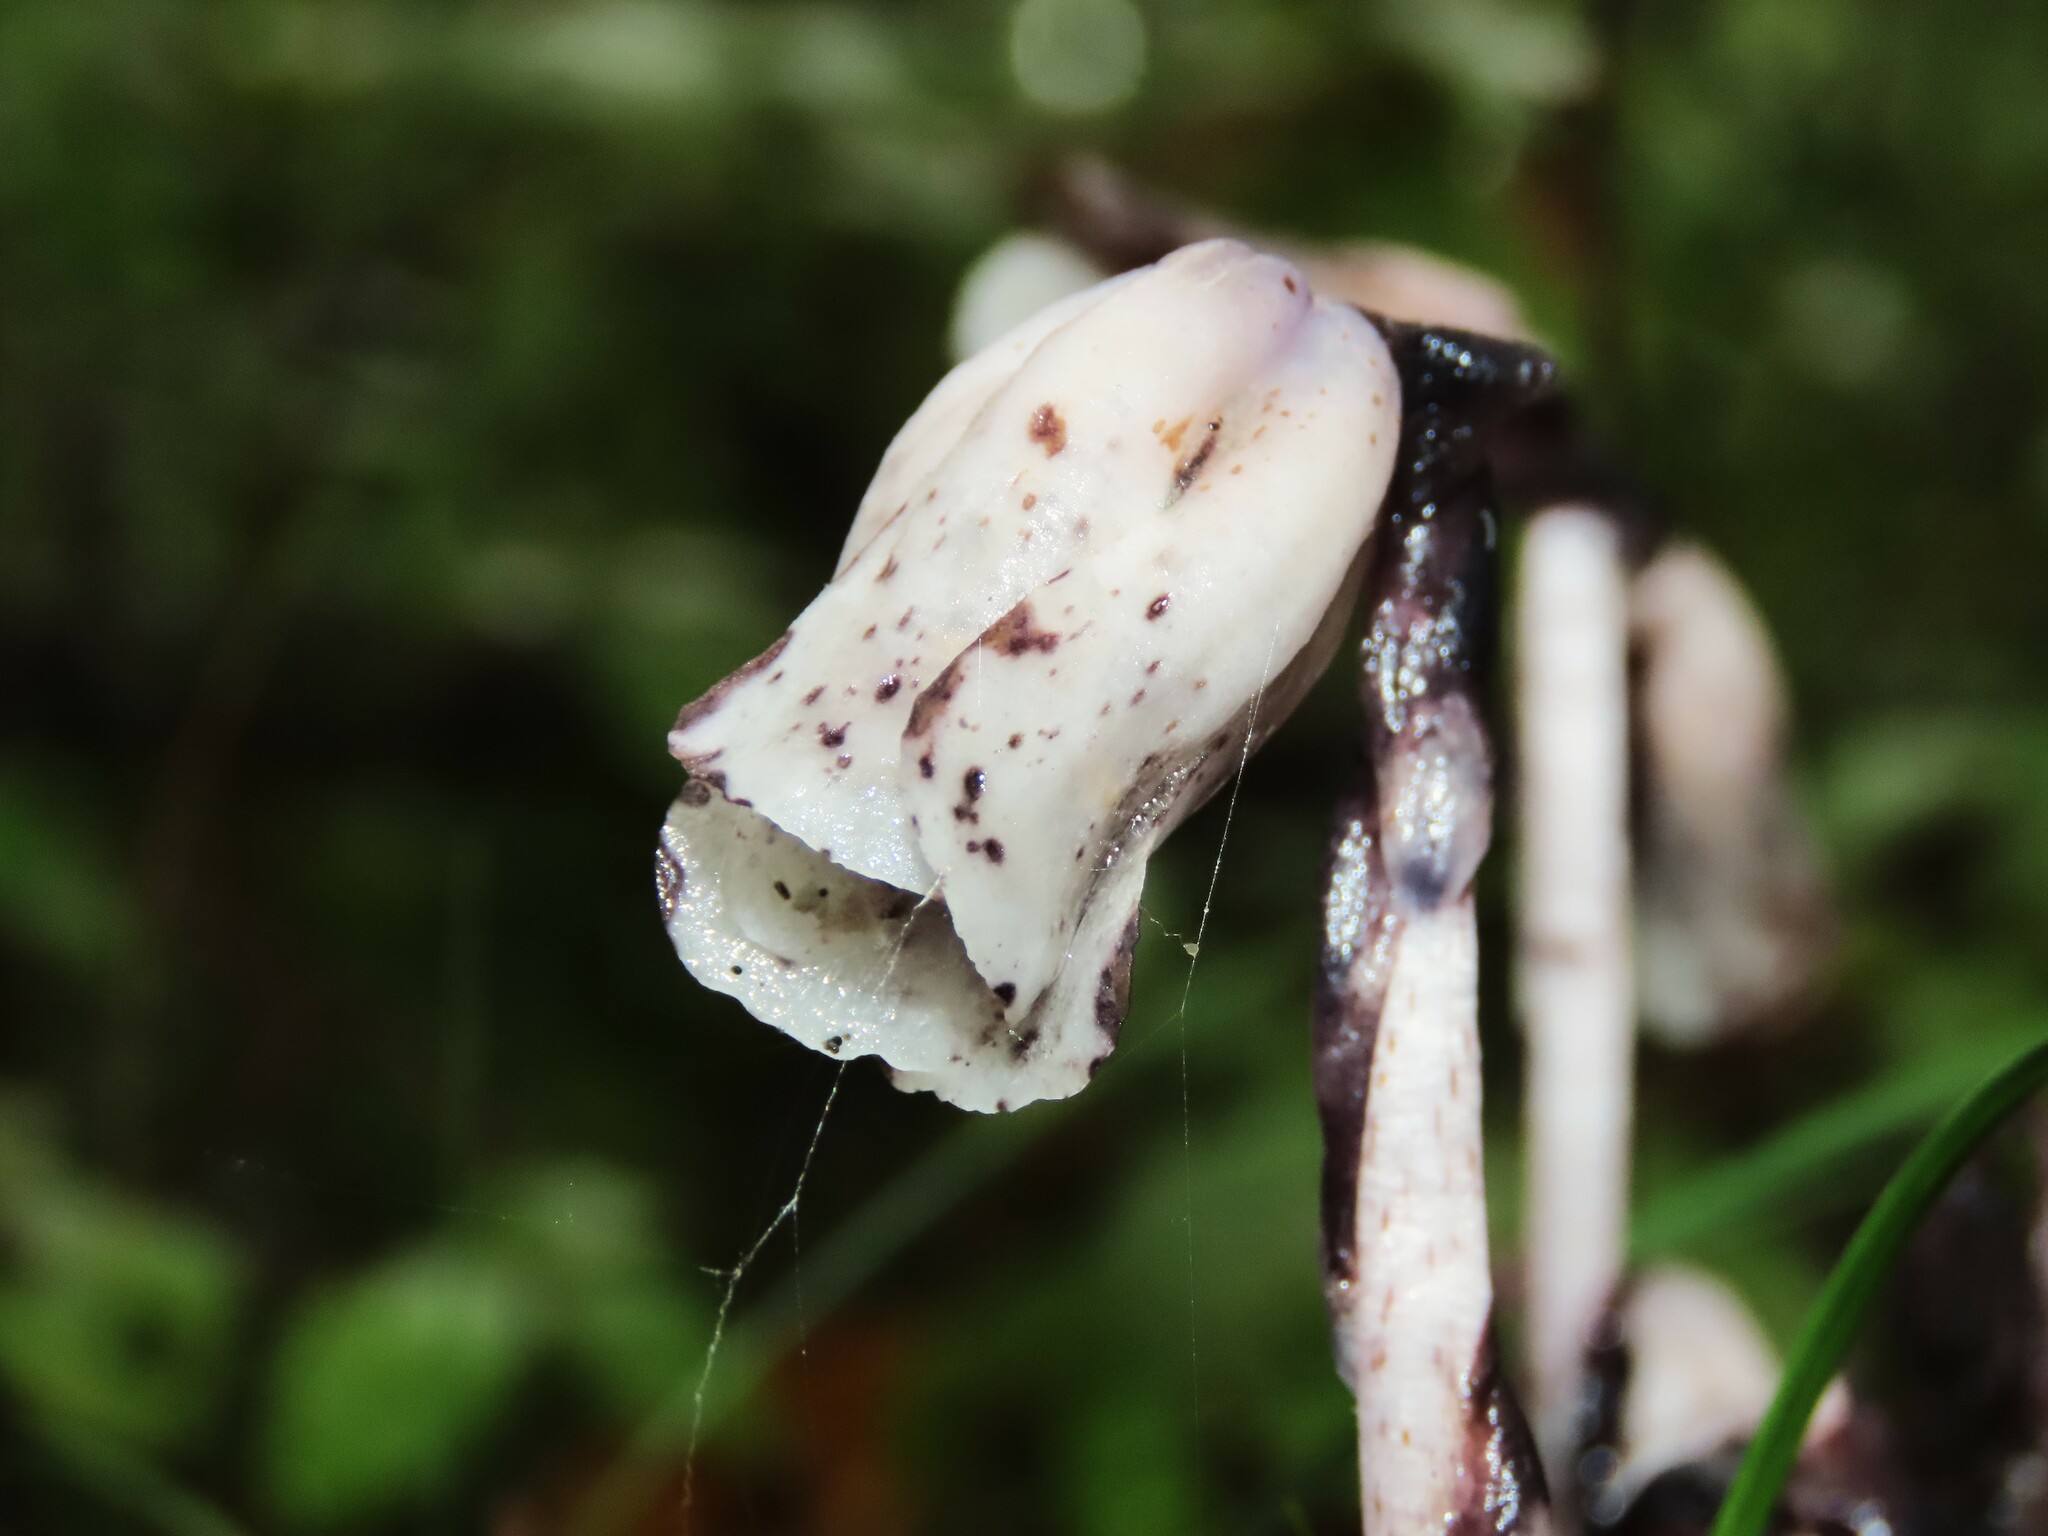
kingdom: Plantae
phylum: Tracheophyta
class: Magnoliopsida
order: Ericales
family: Ericaceae
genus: Monotropa
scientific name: Monotropa uniflora
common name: Convulsion root
